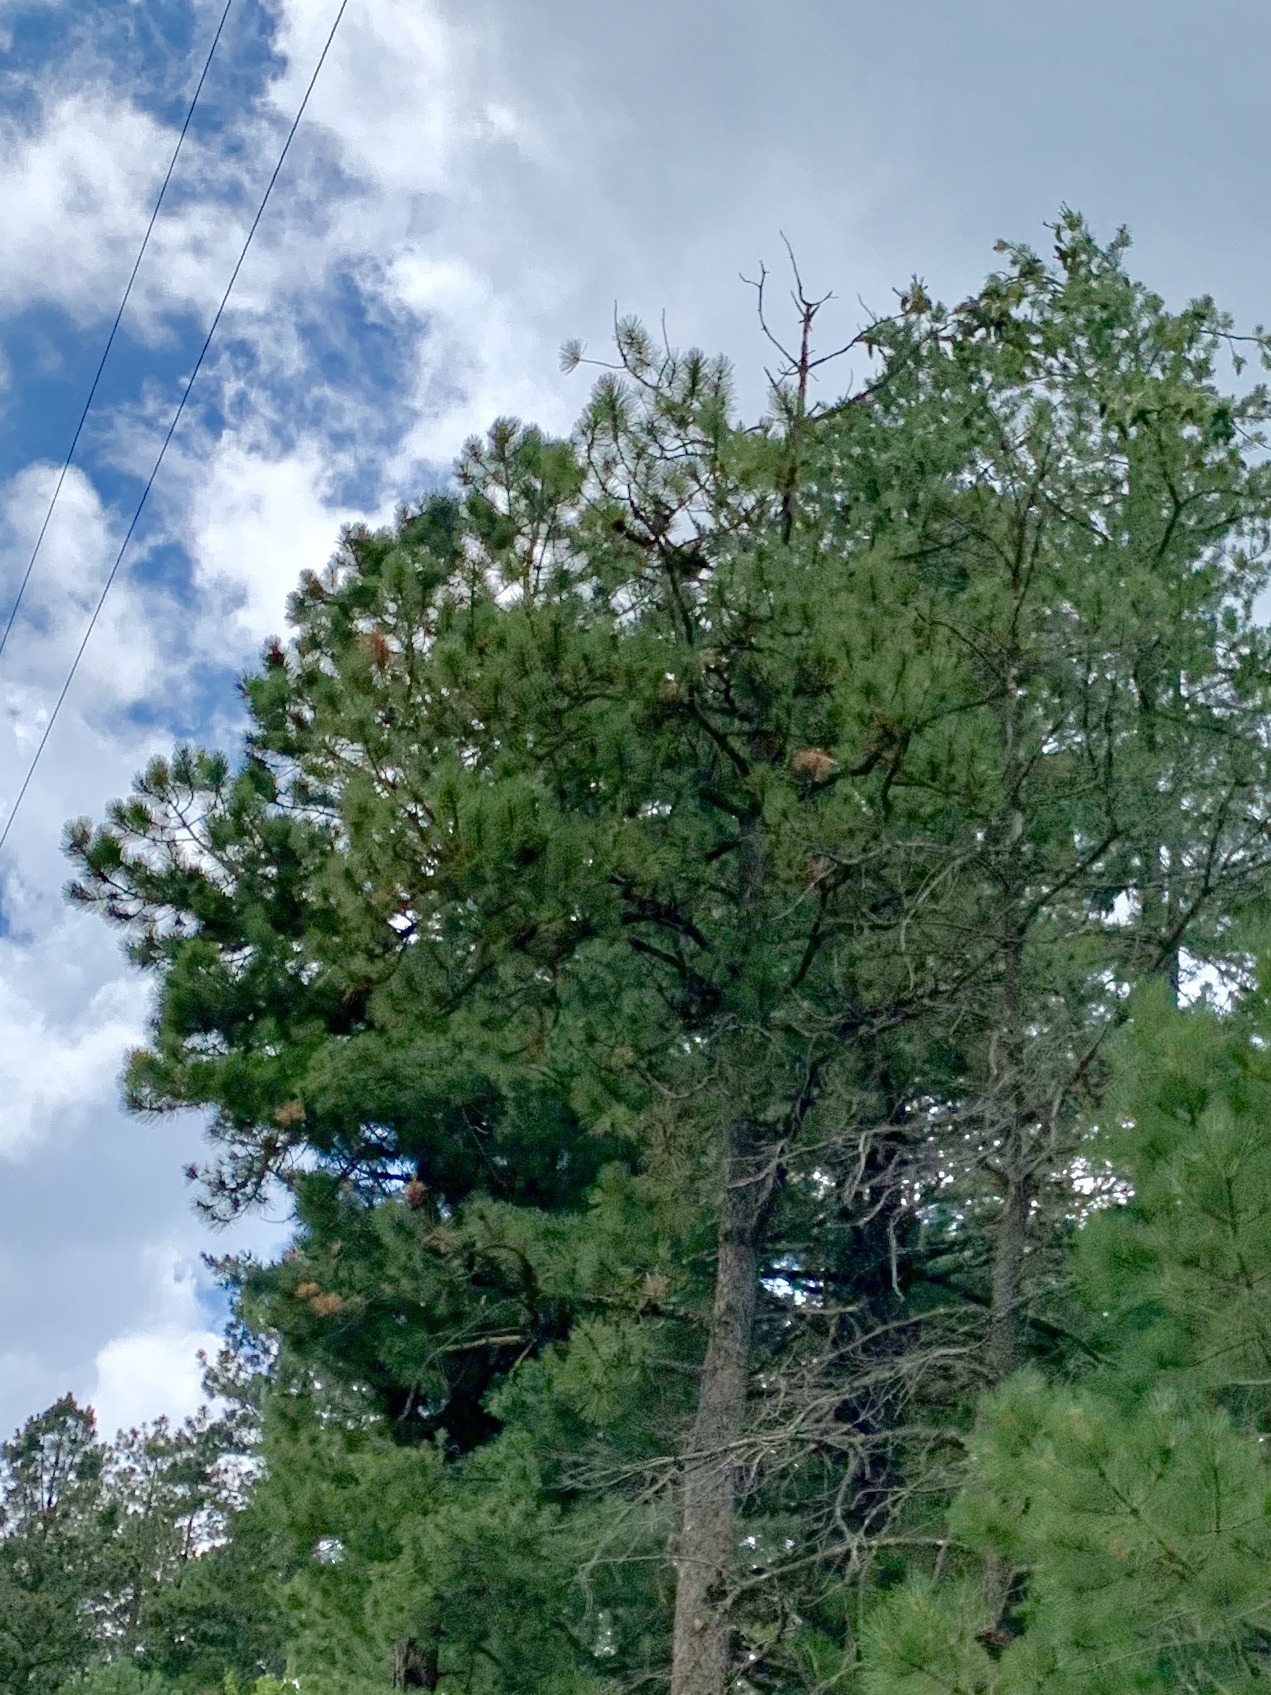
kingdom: Plantae
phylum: Tracheophyta
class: Pinopsida
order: Pinales
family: Pinaceae
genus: Pinus
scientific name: Pinus ponderosa
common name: Western yellow-pine
